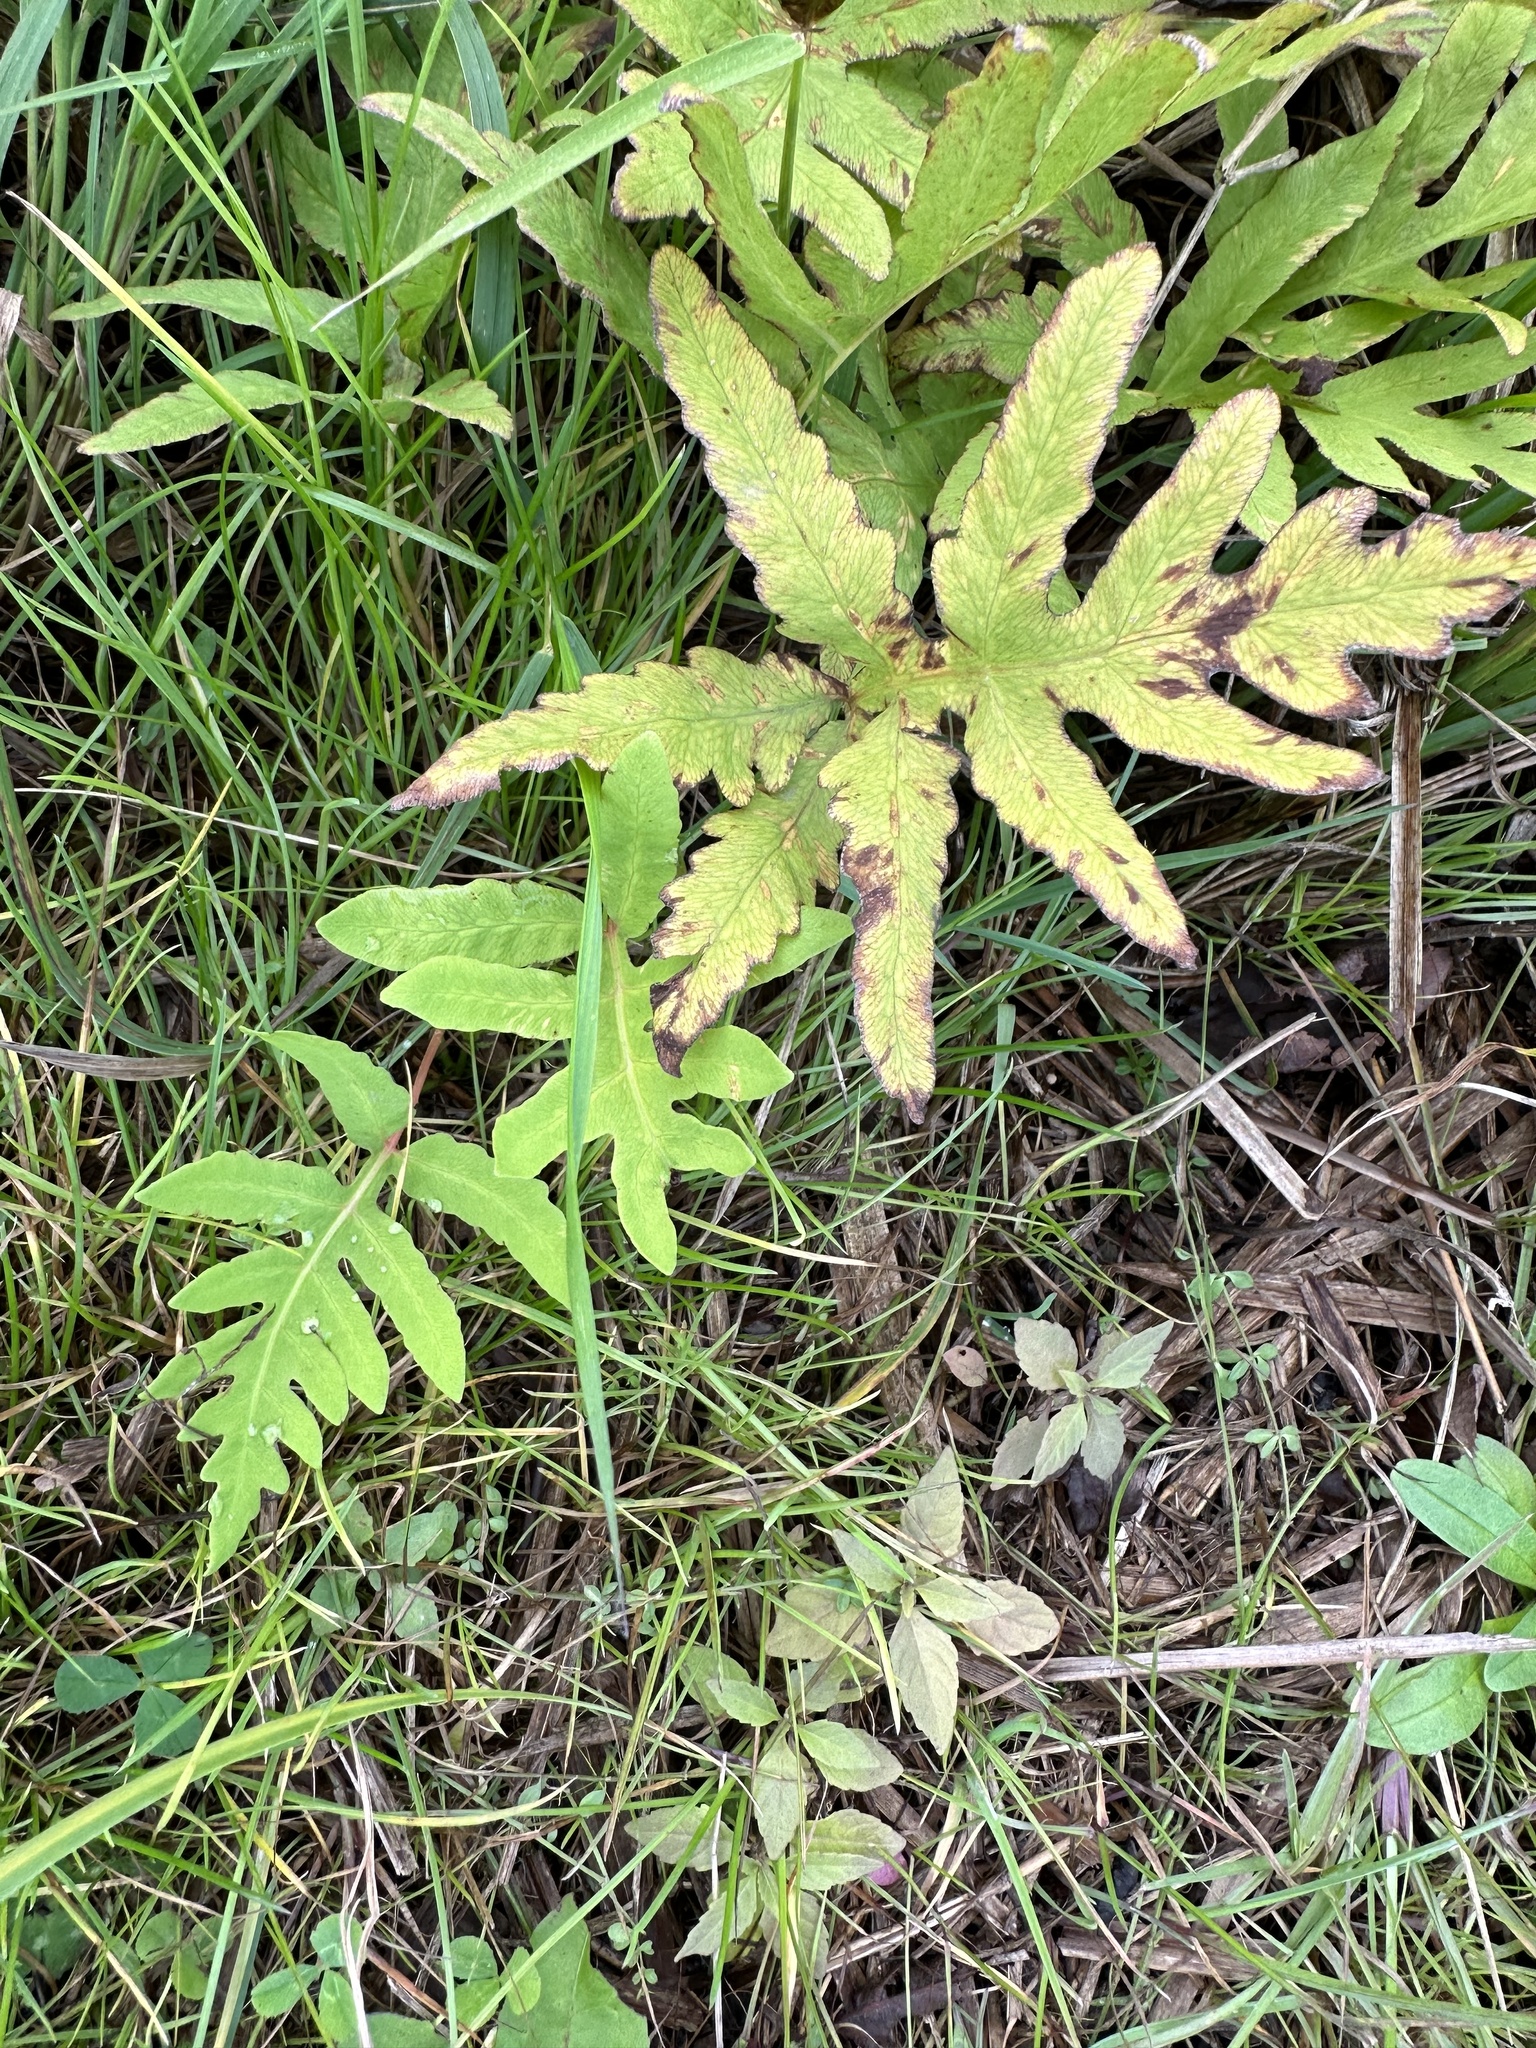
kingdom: Plantae
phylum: Tracheophyta
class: Polypodiopsida
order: Polypodiales
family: Onocleaceae
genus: Onoclea
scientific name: Onoclea sensibilis
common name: Sensitive fern
